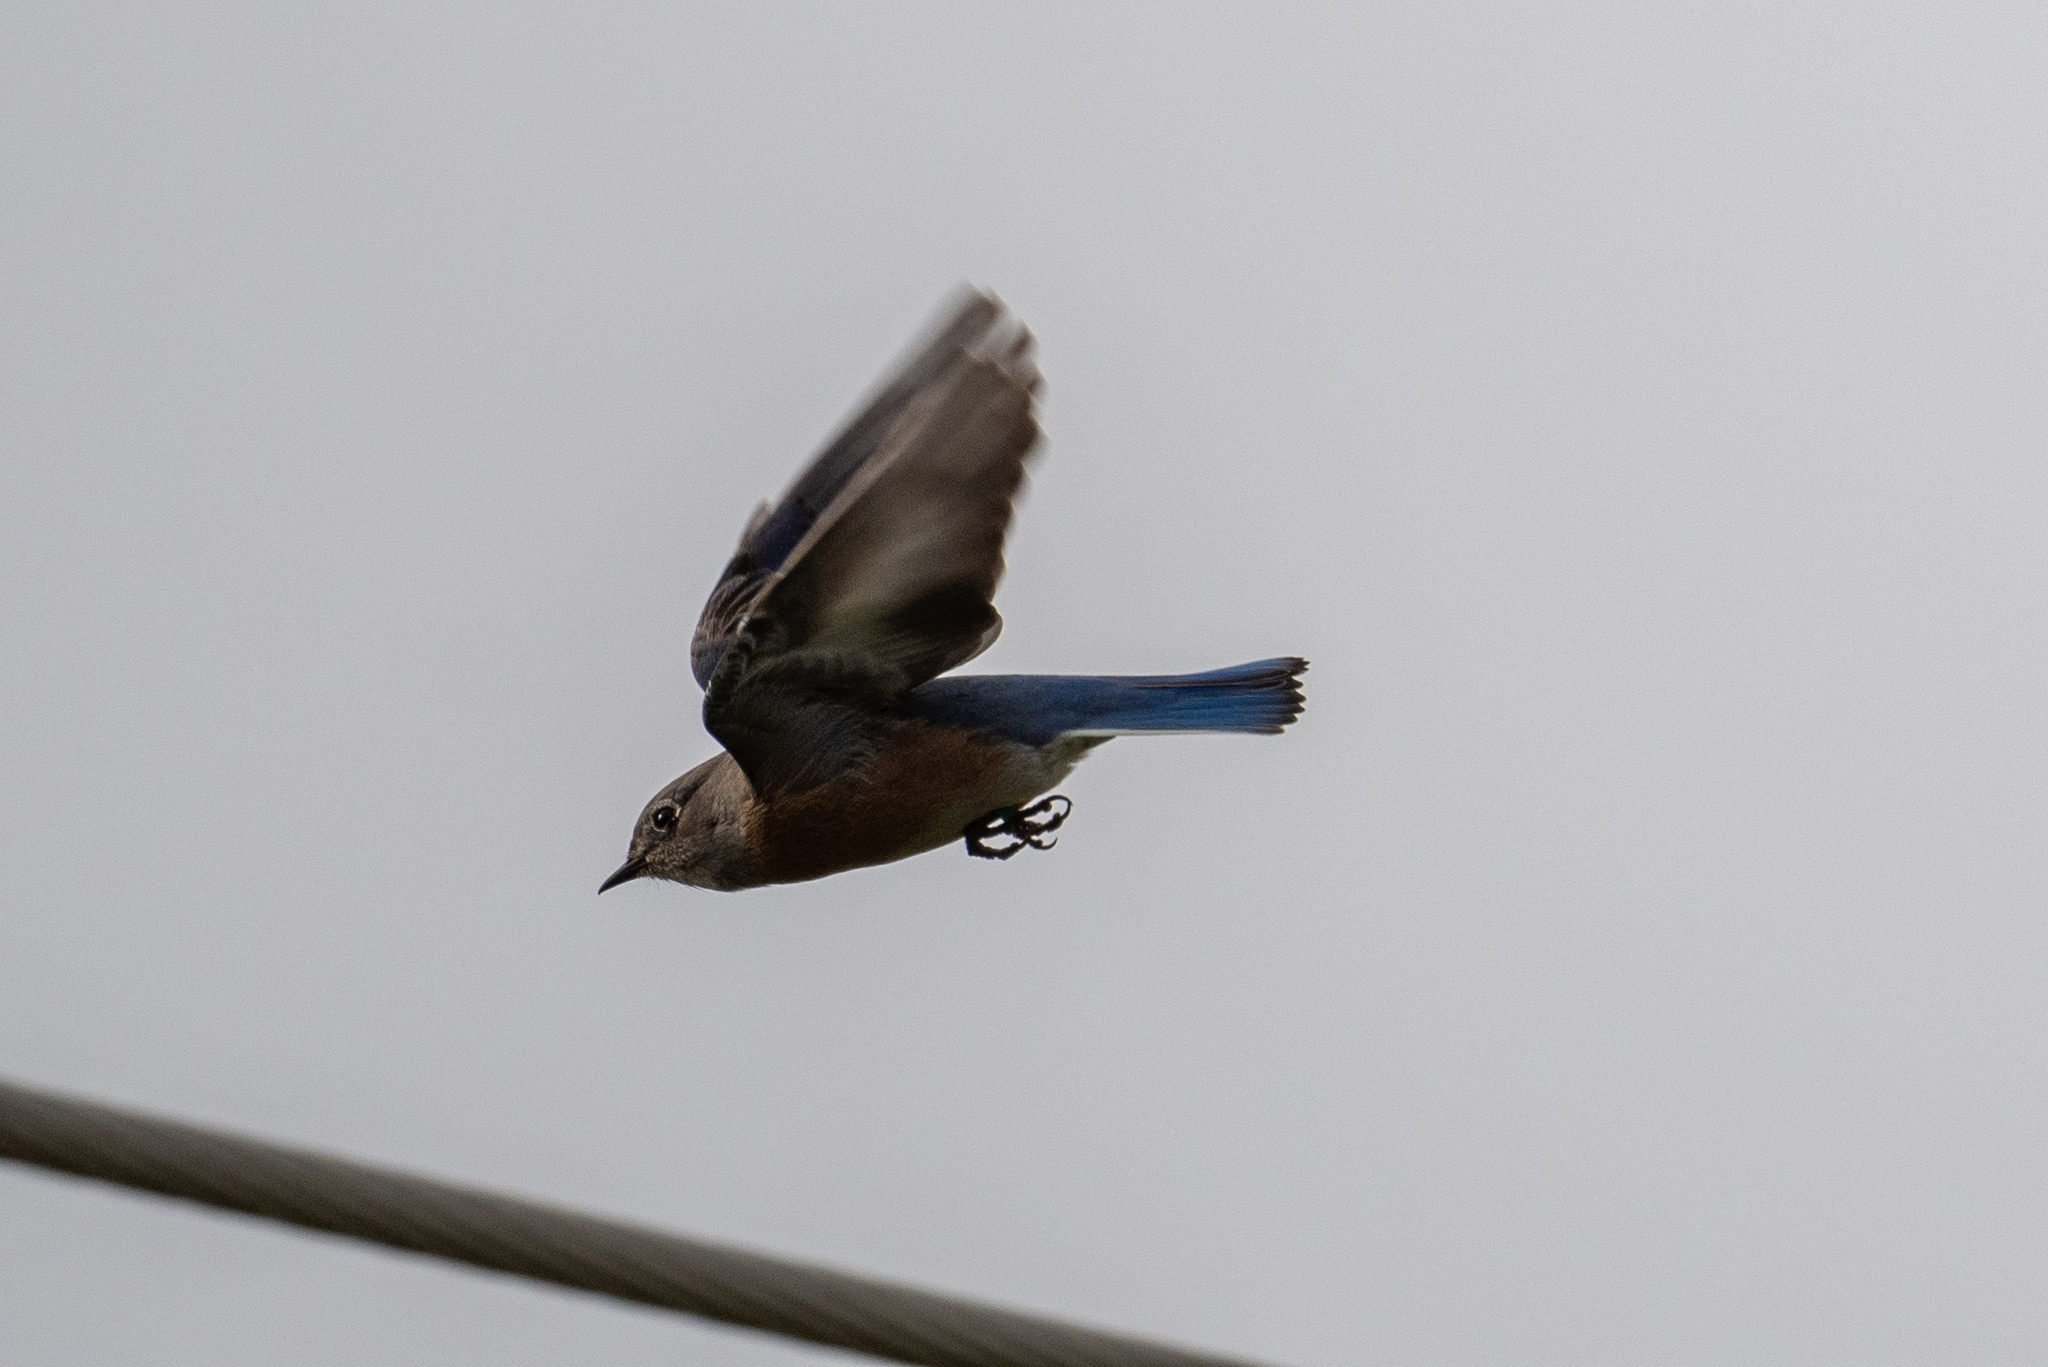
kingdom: Animalia
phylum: Chordata
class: Aves
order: Passeriformes
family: Turdidae
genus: Sialia
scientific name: Sialia mexicana
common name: Western bluebird
